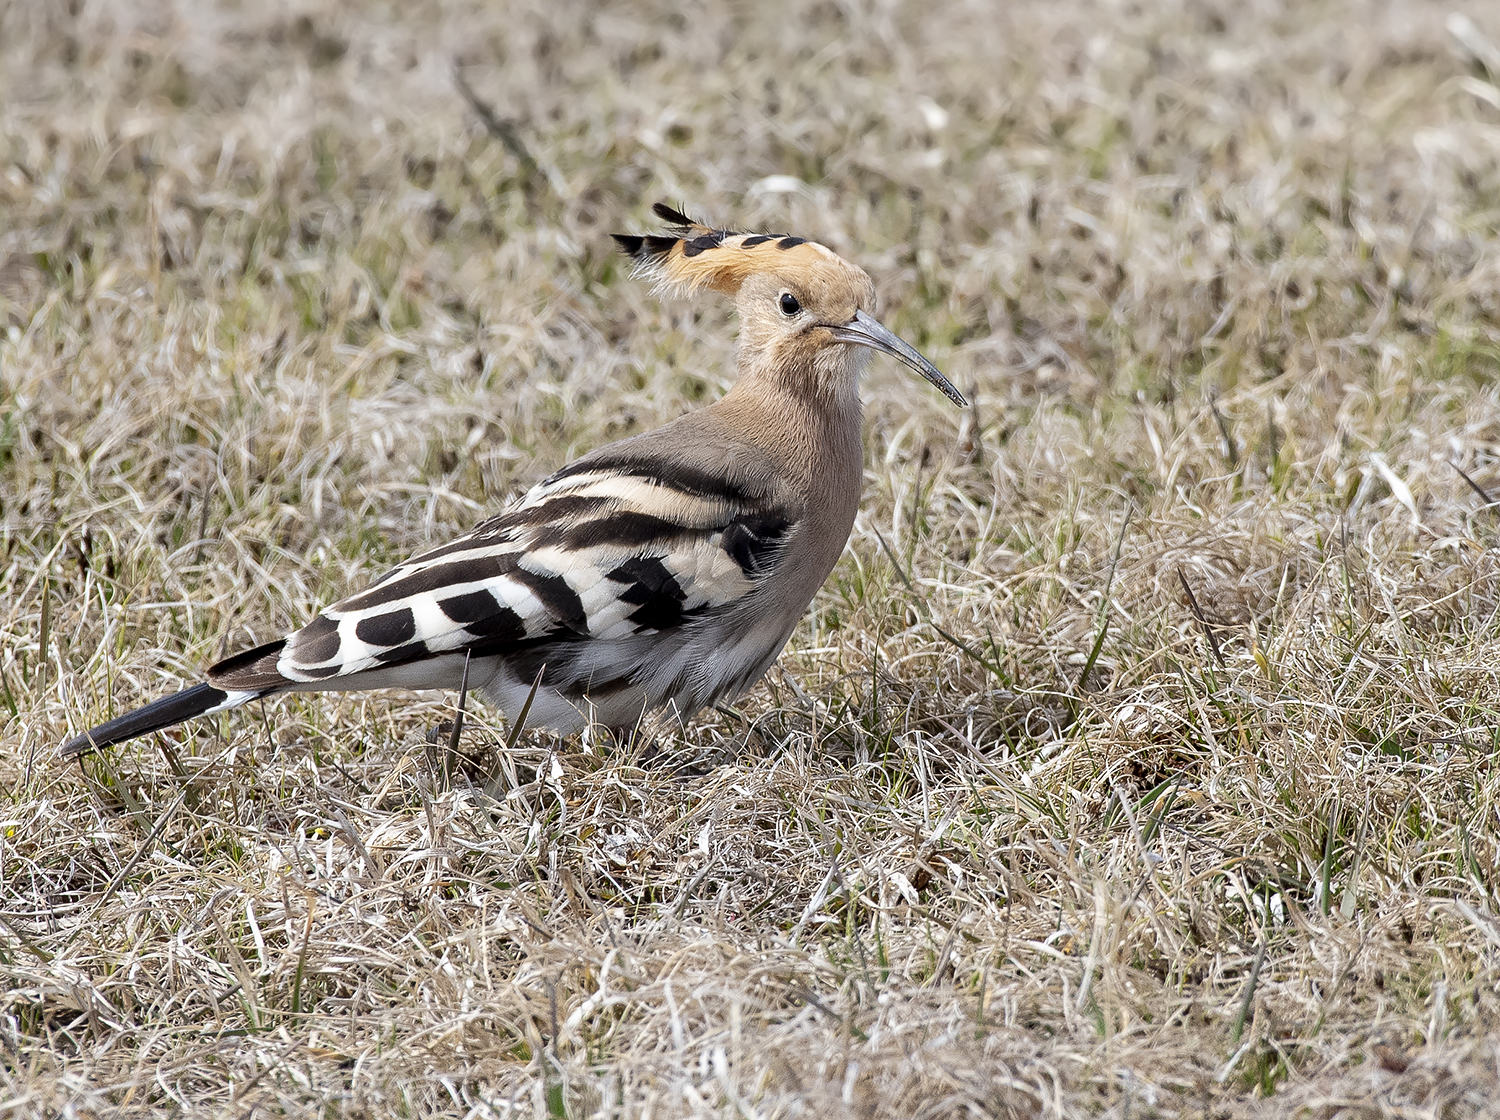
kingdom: Animalia
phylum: Chordata
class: Aves
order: Bucerotiformes
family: Upupidae
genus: Upupa
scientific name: Upupa epops
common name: Eurasian hoopoe
